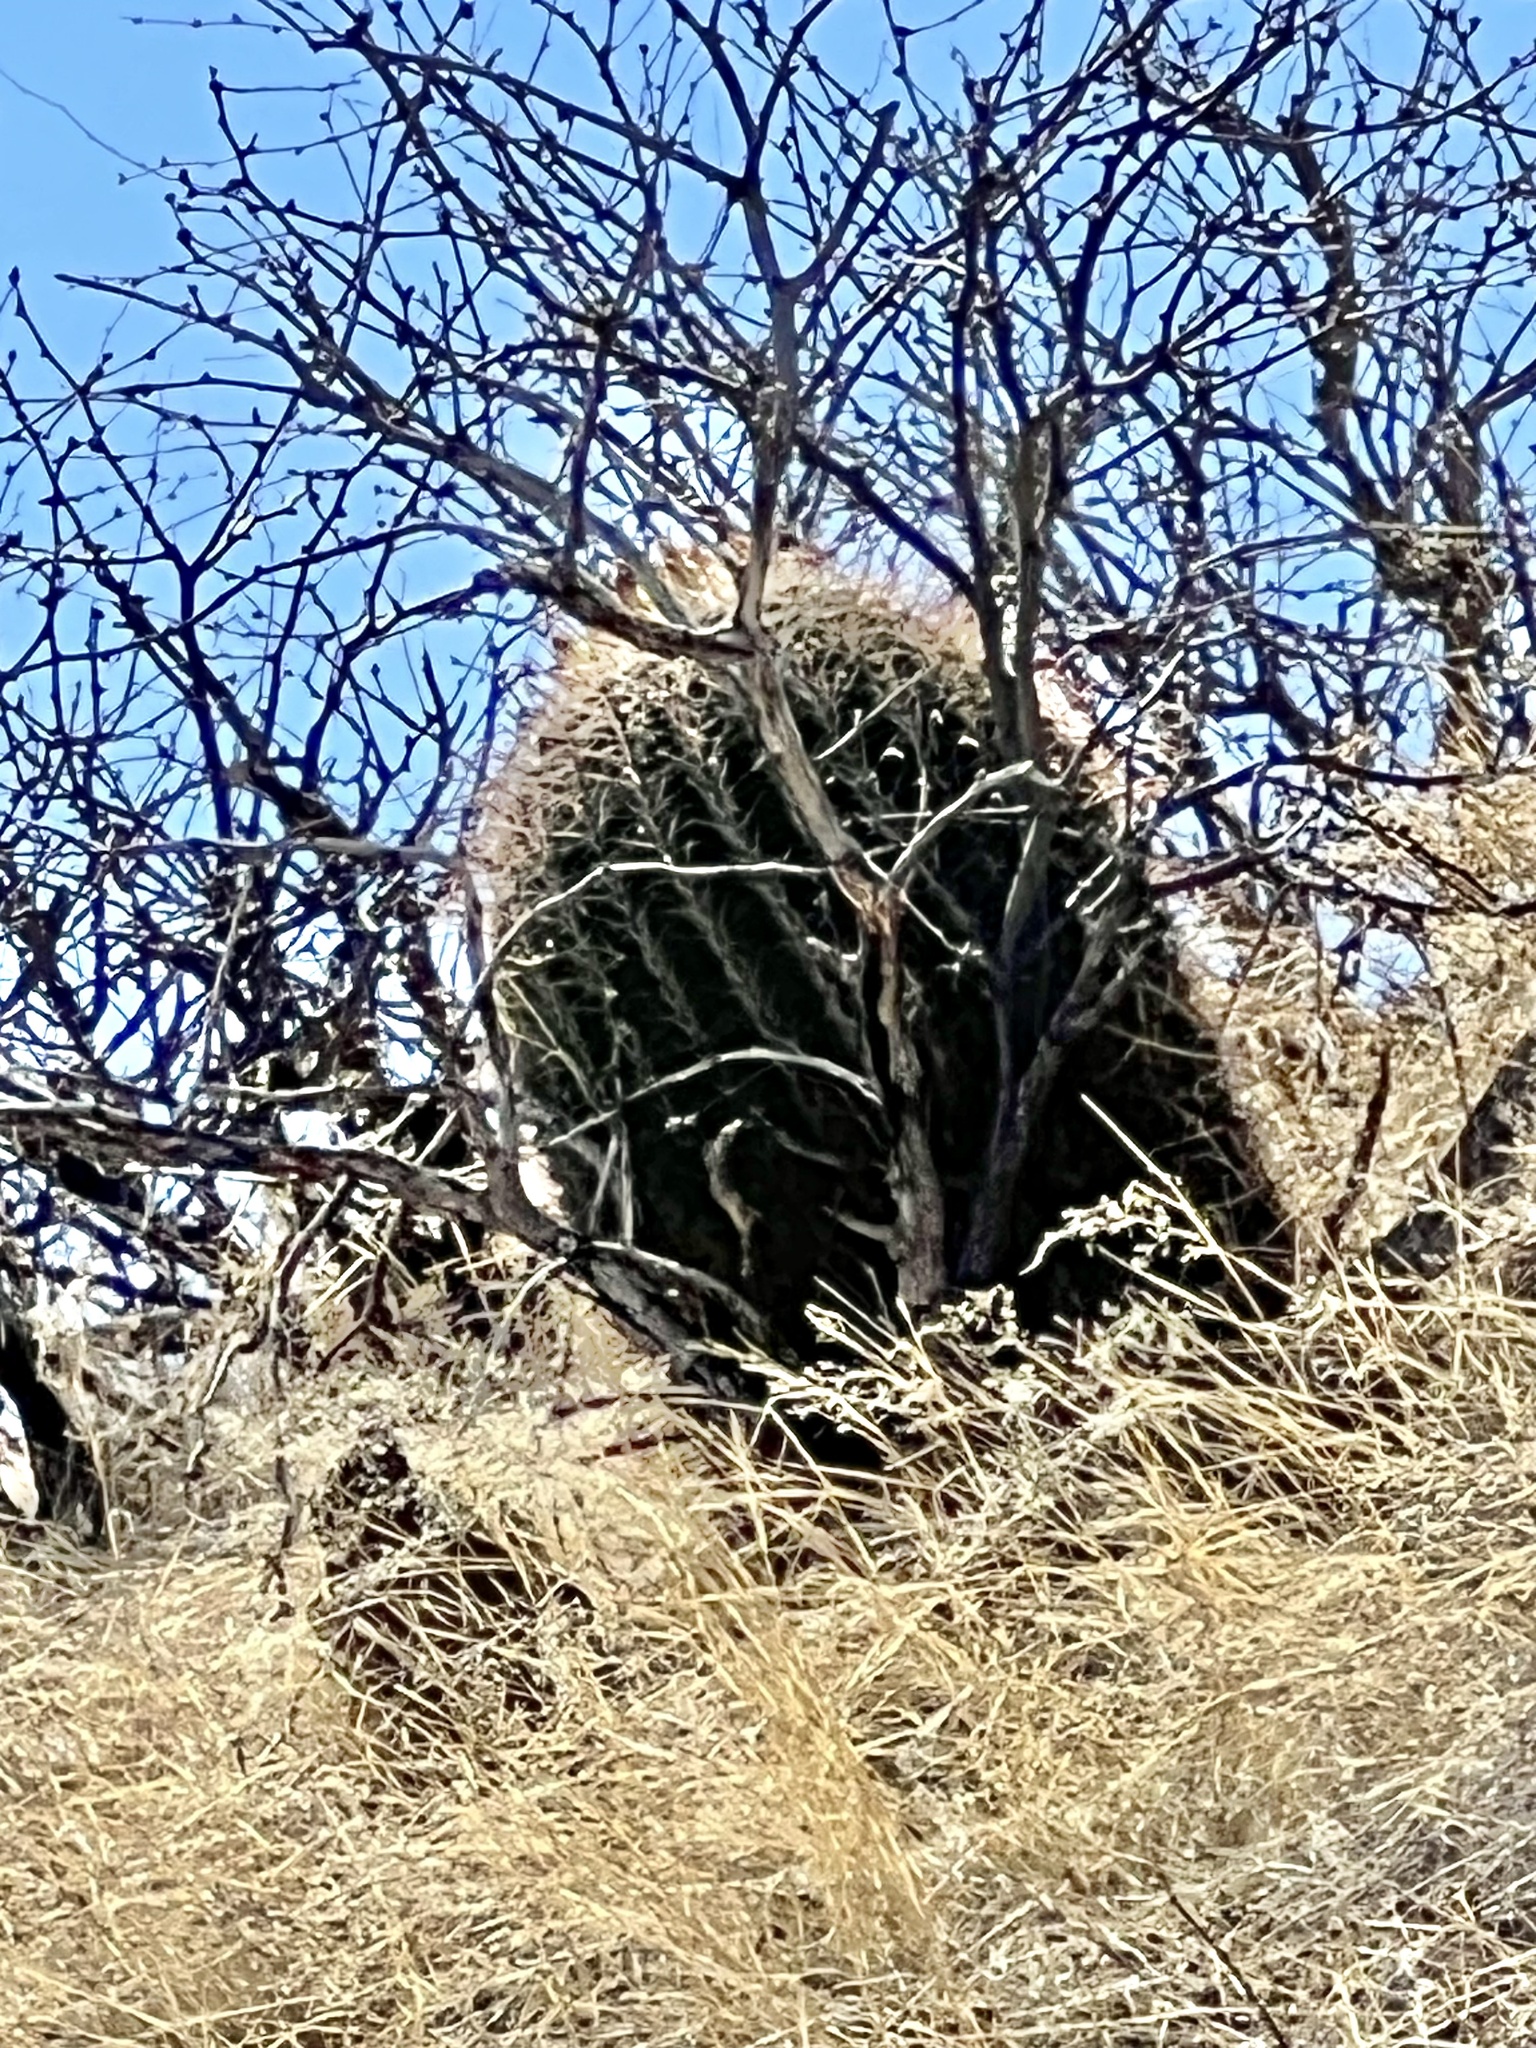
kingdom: Plantae
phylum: Tracheophyta
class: Magnoliopsida
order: Caryophyllales
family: Cactaceae
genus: Ferocactus
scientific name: Ferocactus wislizeni
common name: Candy barrel cactus
